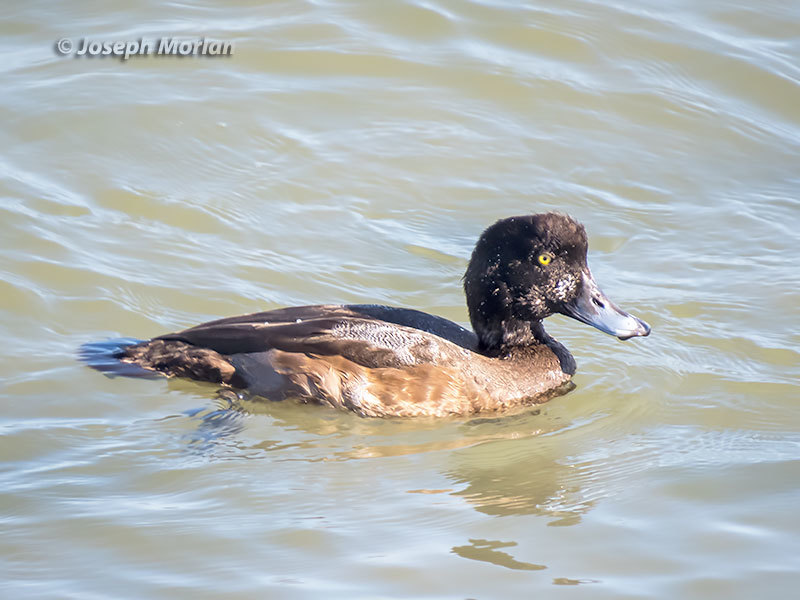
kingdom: Animalia
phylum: Chordata
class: Aves
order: Anseriformes
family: Anatidae
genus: Aythya
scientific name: Aythya marila
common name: Greater scaup
